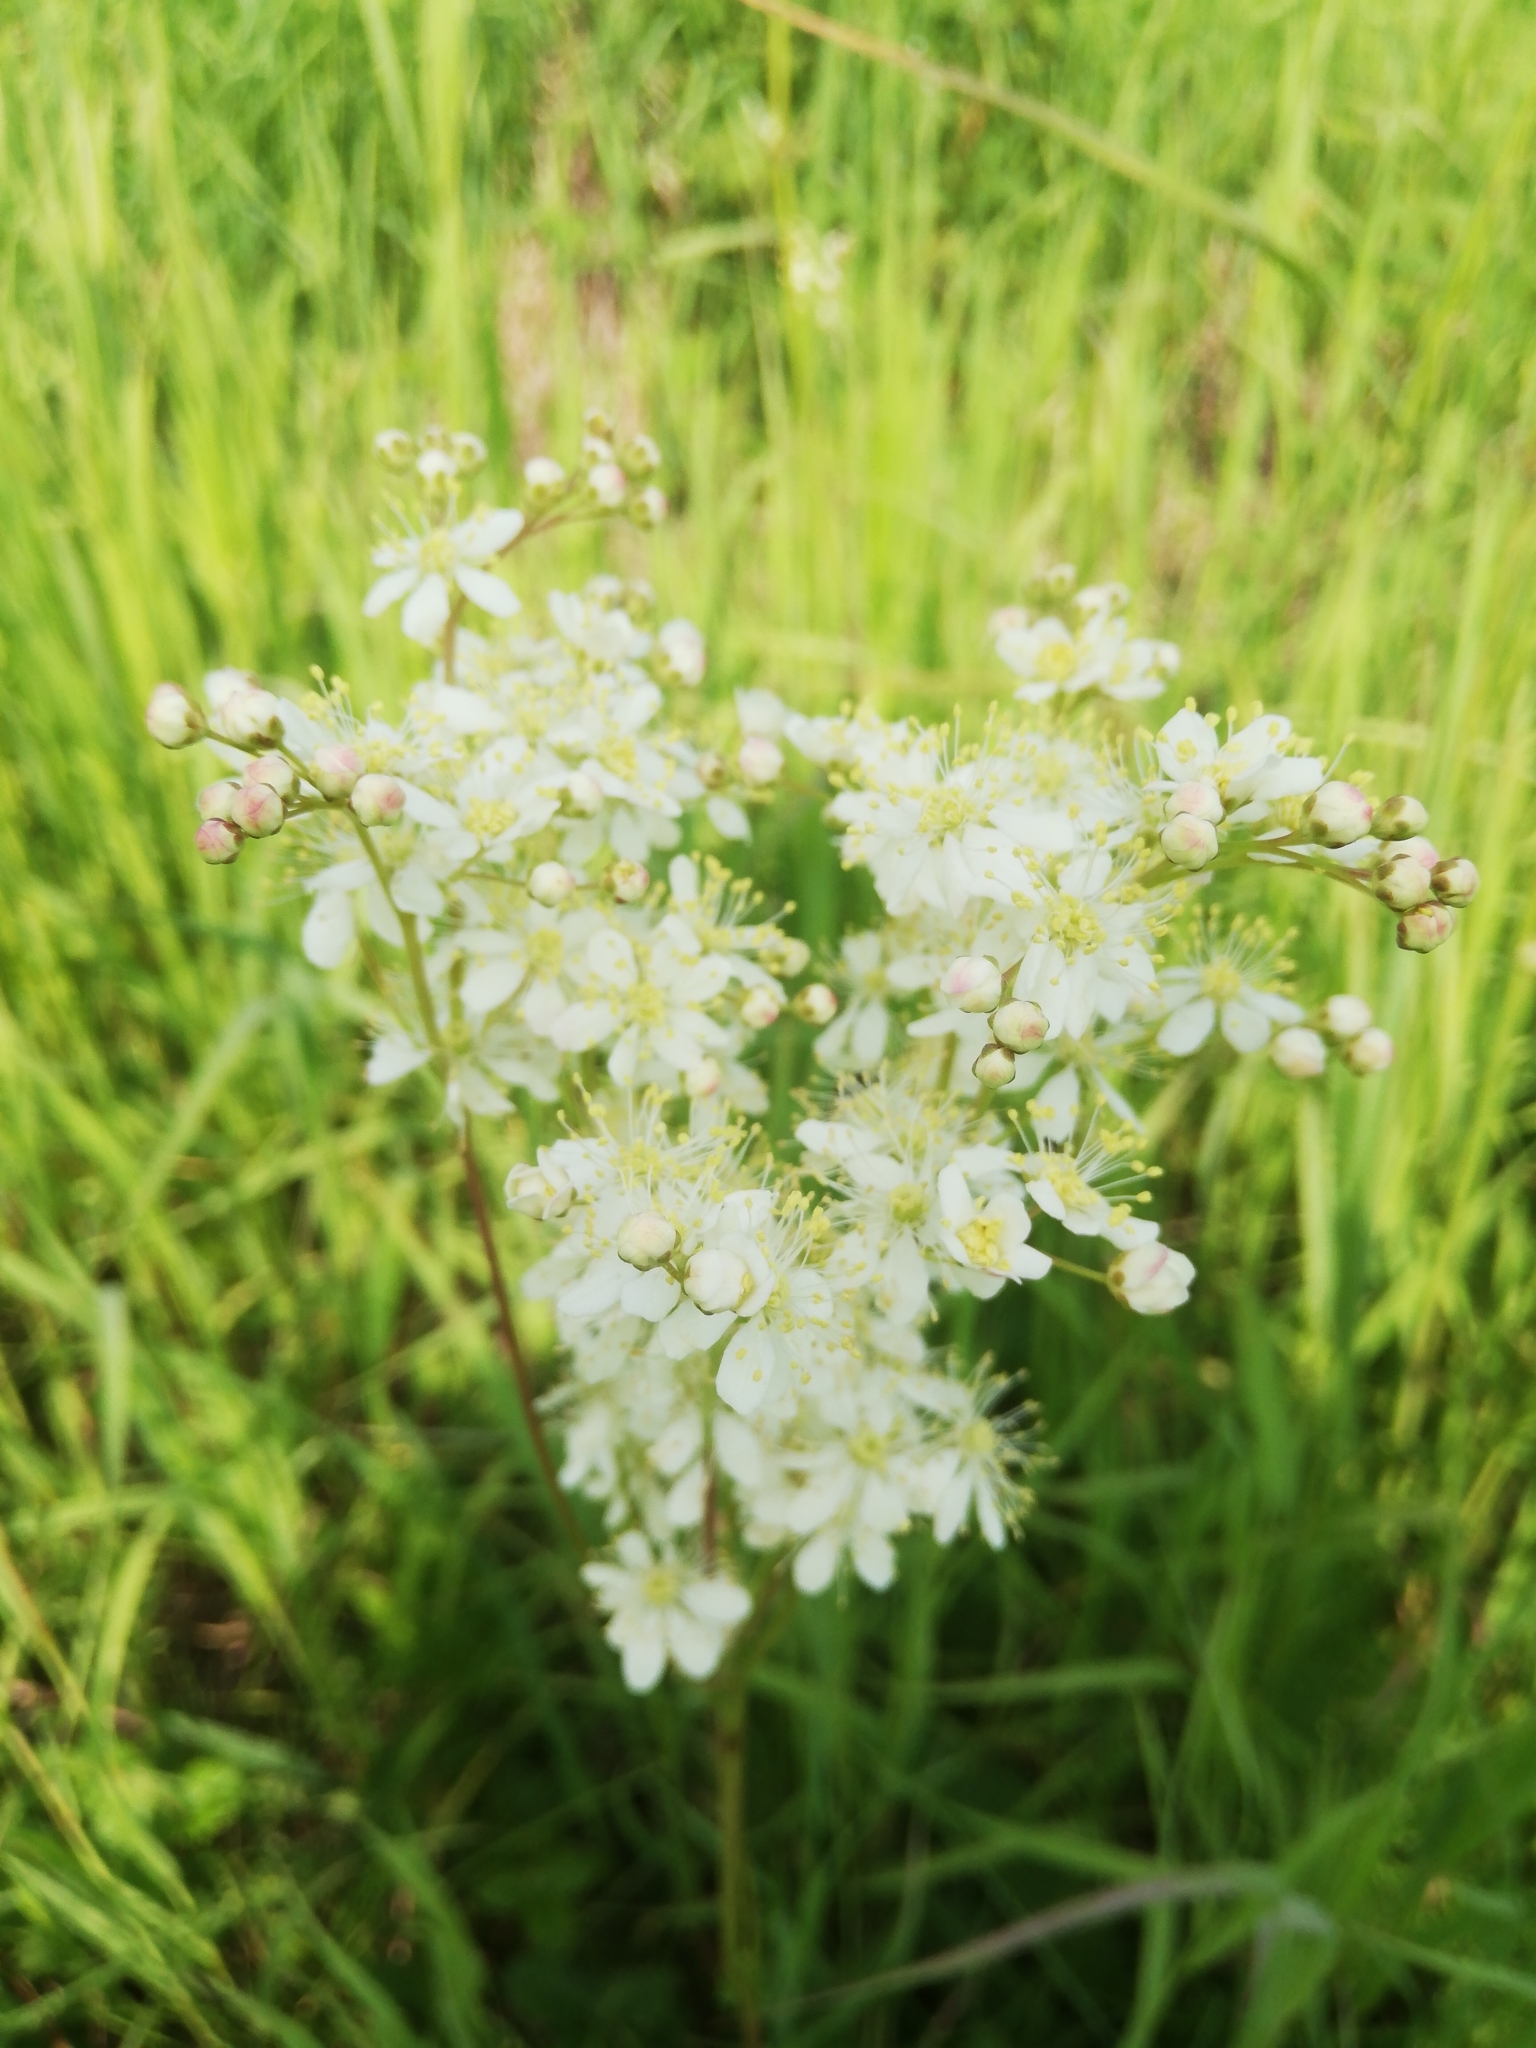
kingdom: Plantae
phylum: Tracheophyta
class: Magnoliopsida
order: Rosales
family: Rosaceae
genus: Filipendula
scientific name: Filipendula vulgaris
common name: Dropwort
